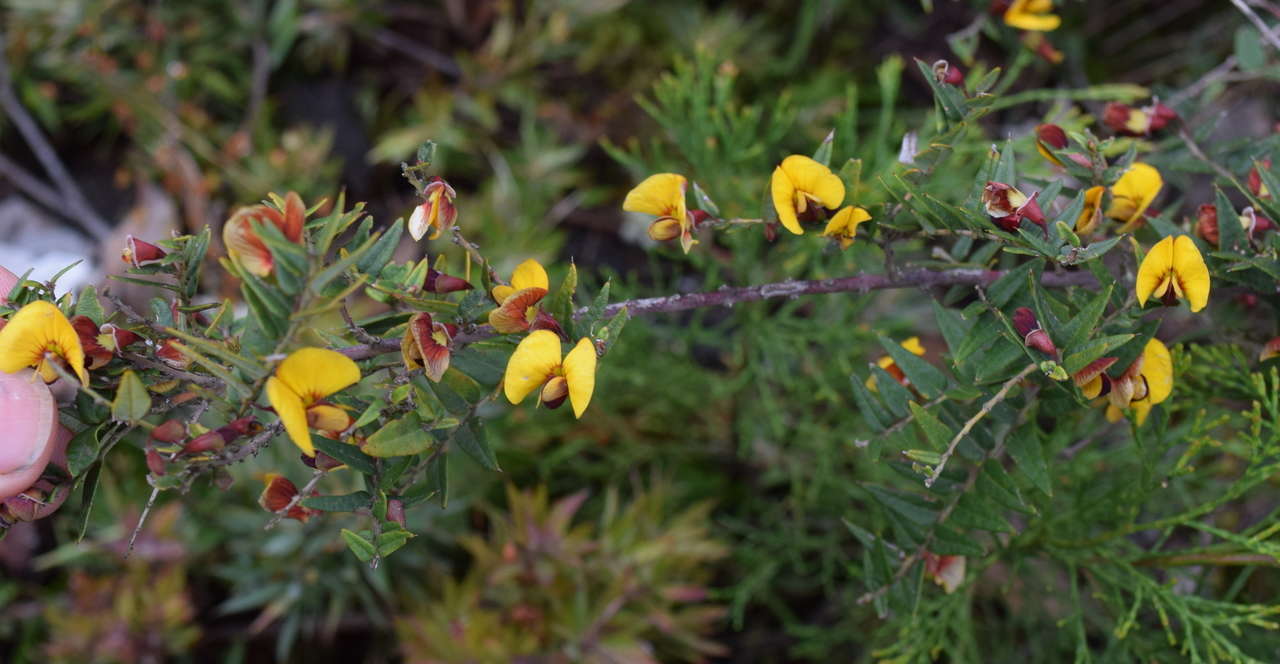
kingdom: Plantae
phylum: Tracheophyta
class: Magnoliopsida
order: Fabales
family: Fabaceae
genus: Bossiaea
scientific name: Bossiaea cinerea
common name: Showy bossiaea
